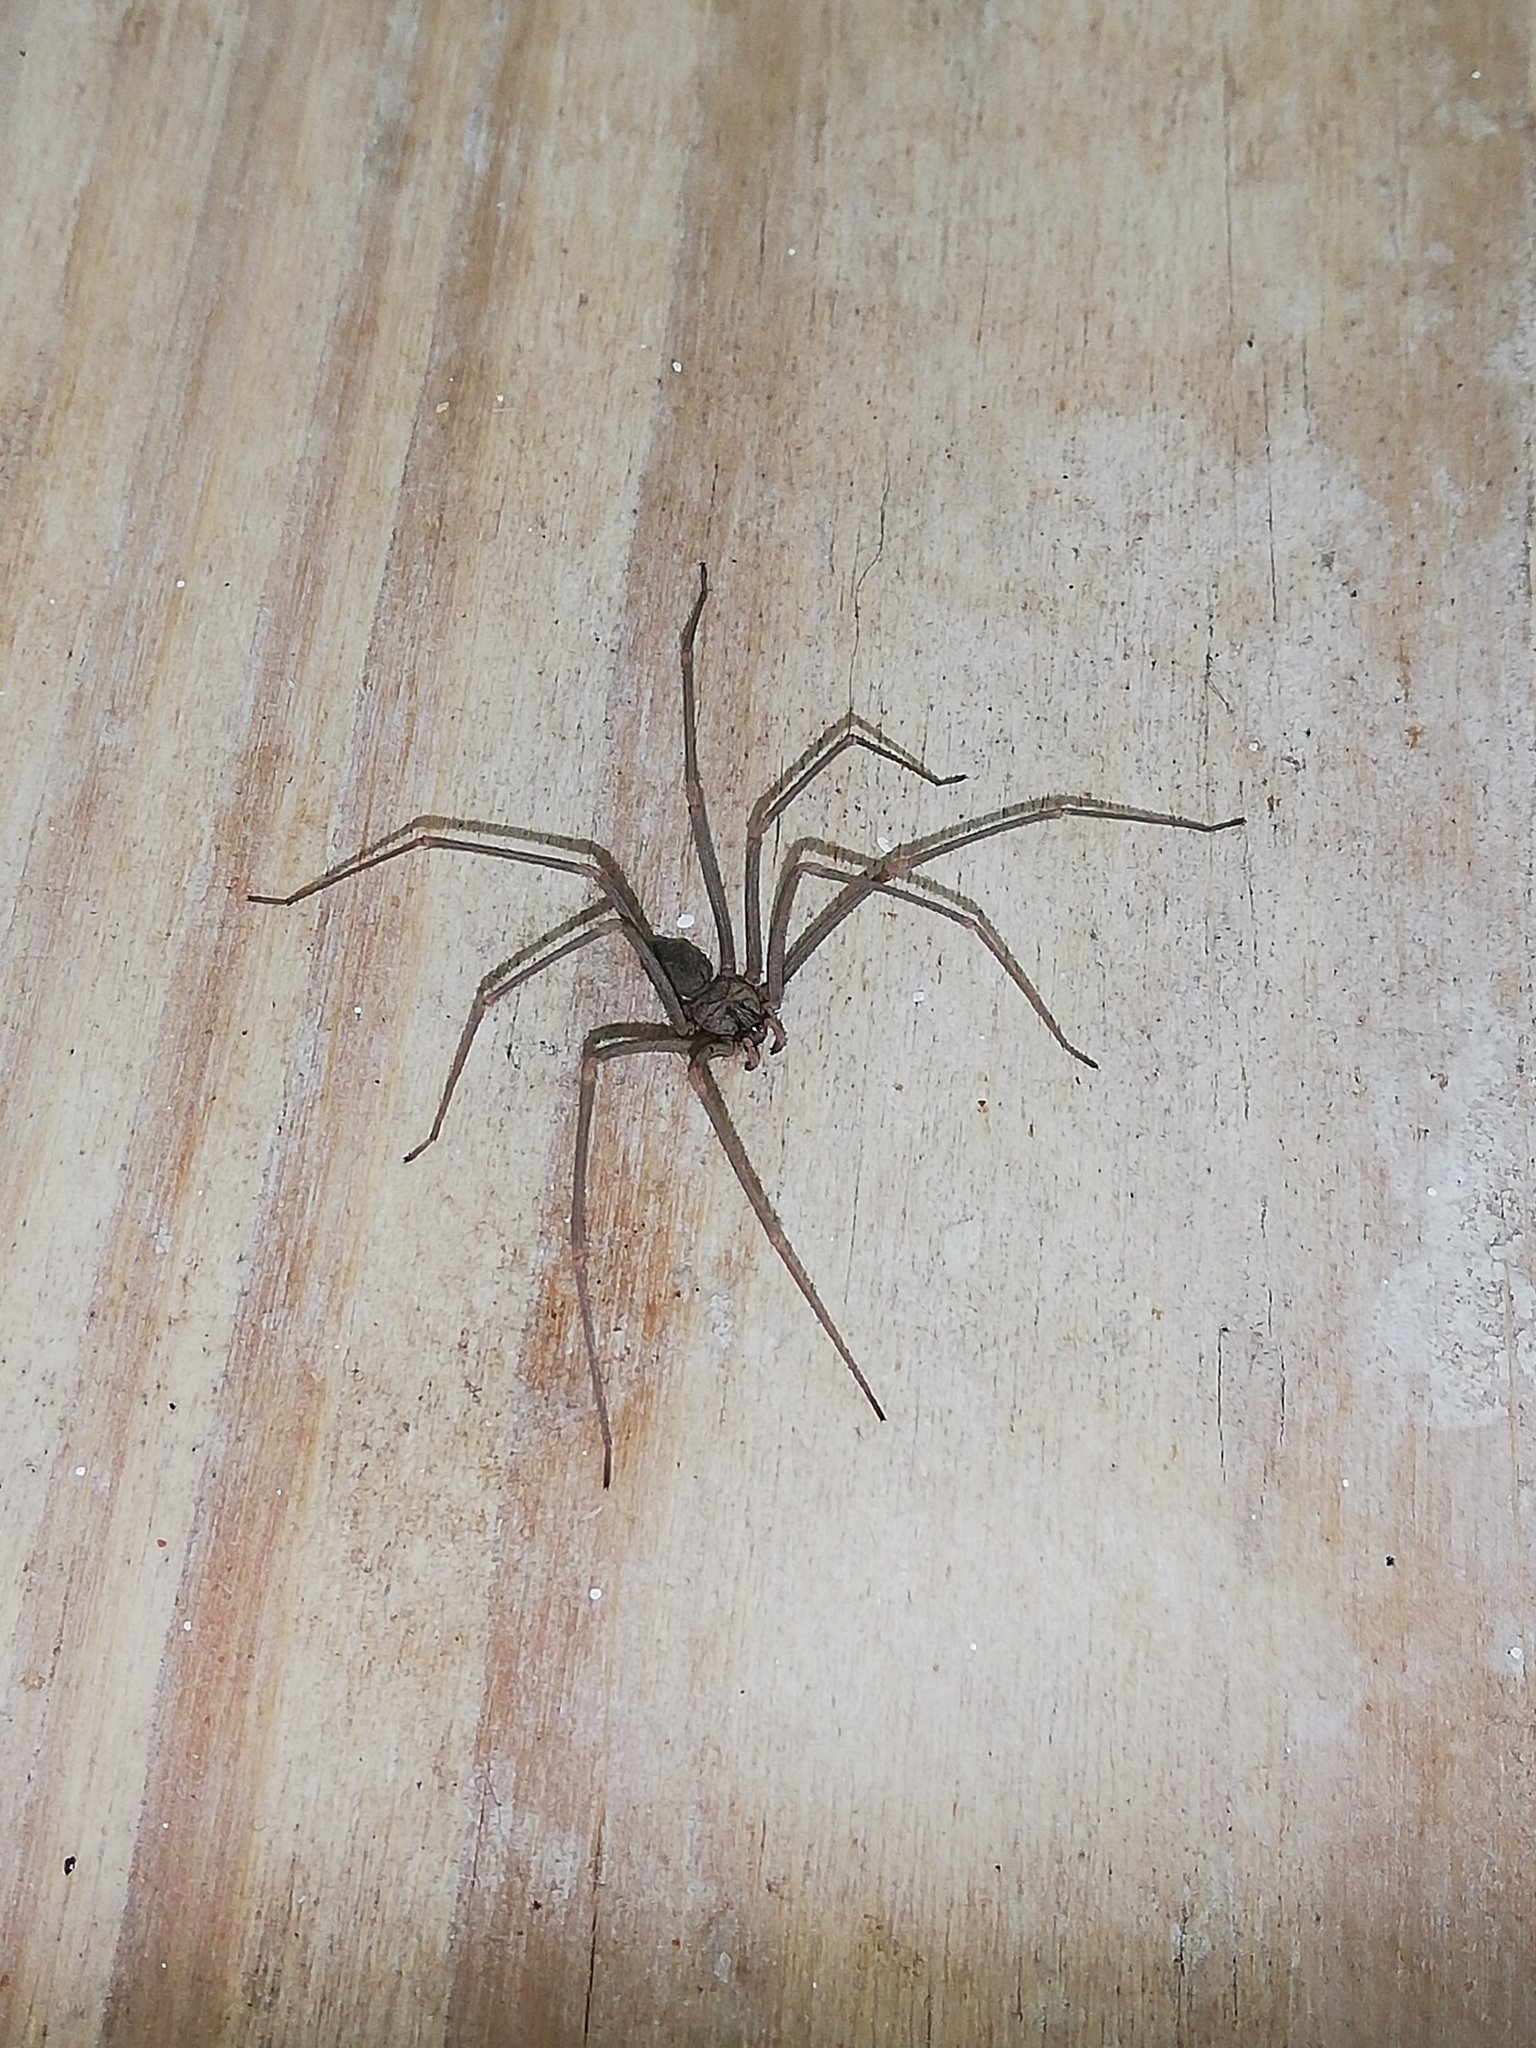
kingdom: Animalia
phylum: Arthropoda
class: Arachnida
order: Araneae
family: Sicariidae
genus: Loxosceles
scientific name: Loxosceles spinulosa
